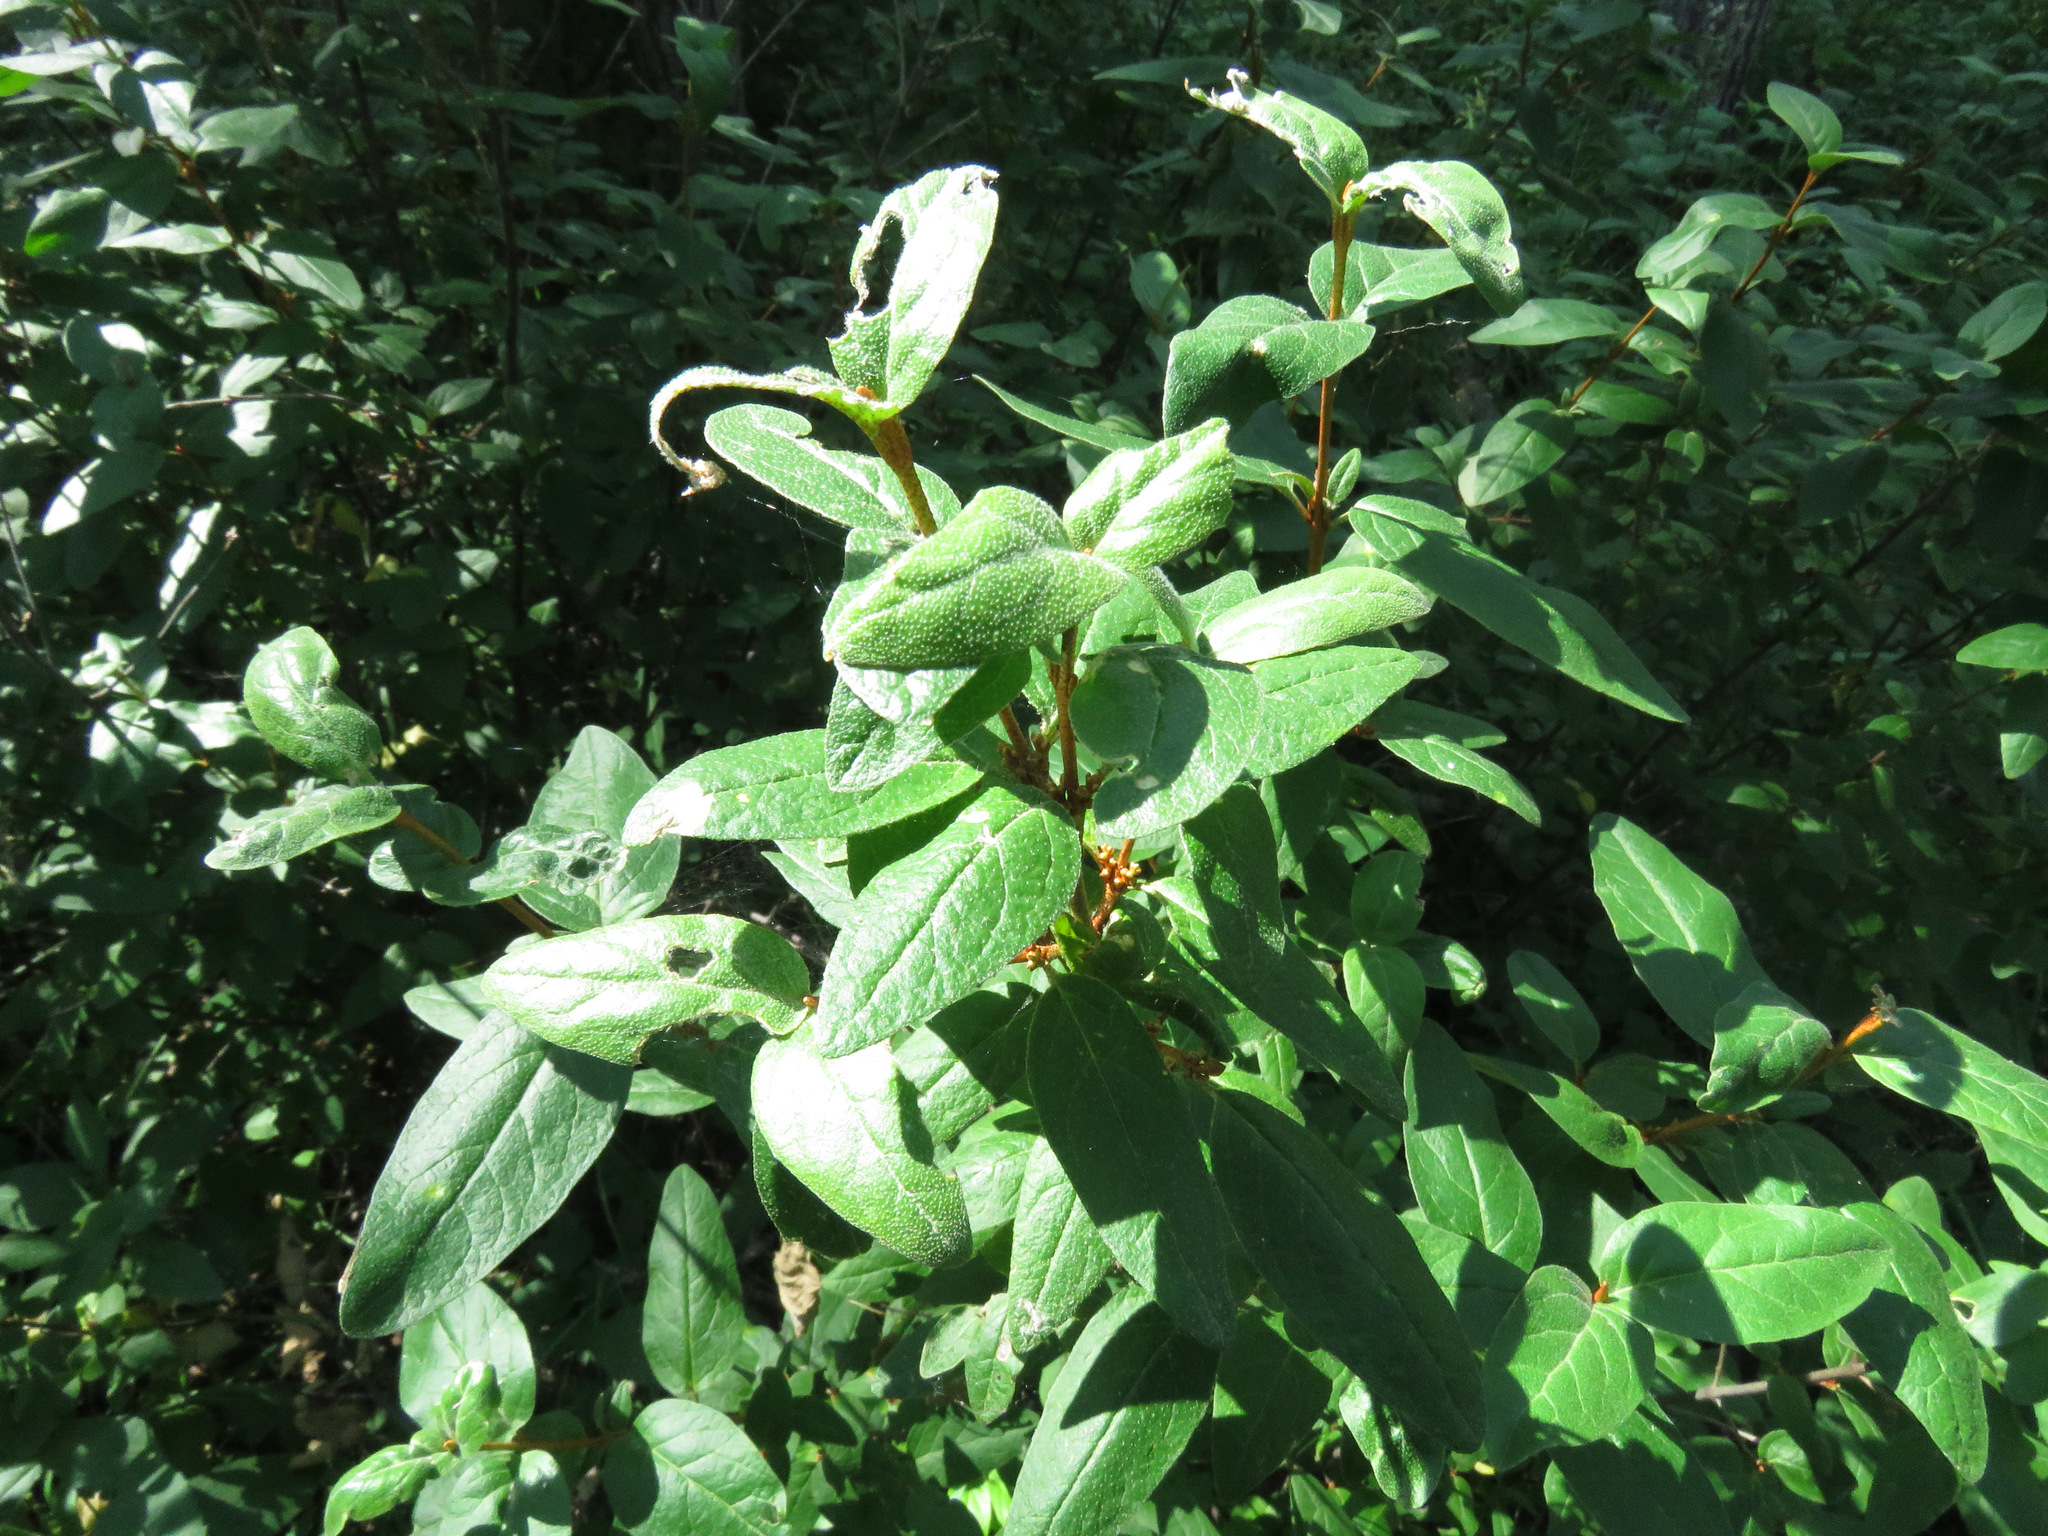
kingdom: Plantae
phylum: Tracheophyta
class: Magnoliopsida
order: Rosales
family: Elaeagnaceae
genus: Shepherdia
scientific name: Shepherdia canadensis
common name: Soapberry
